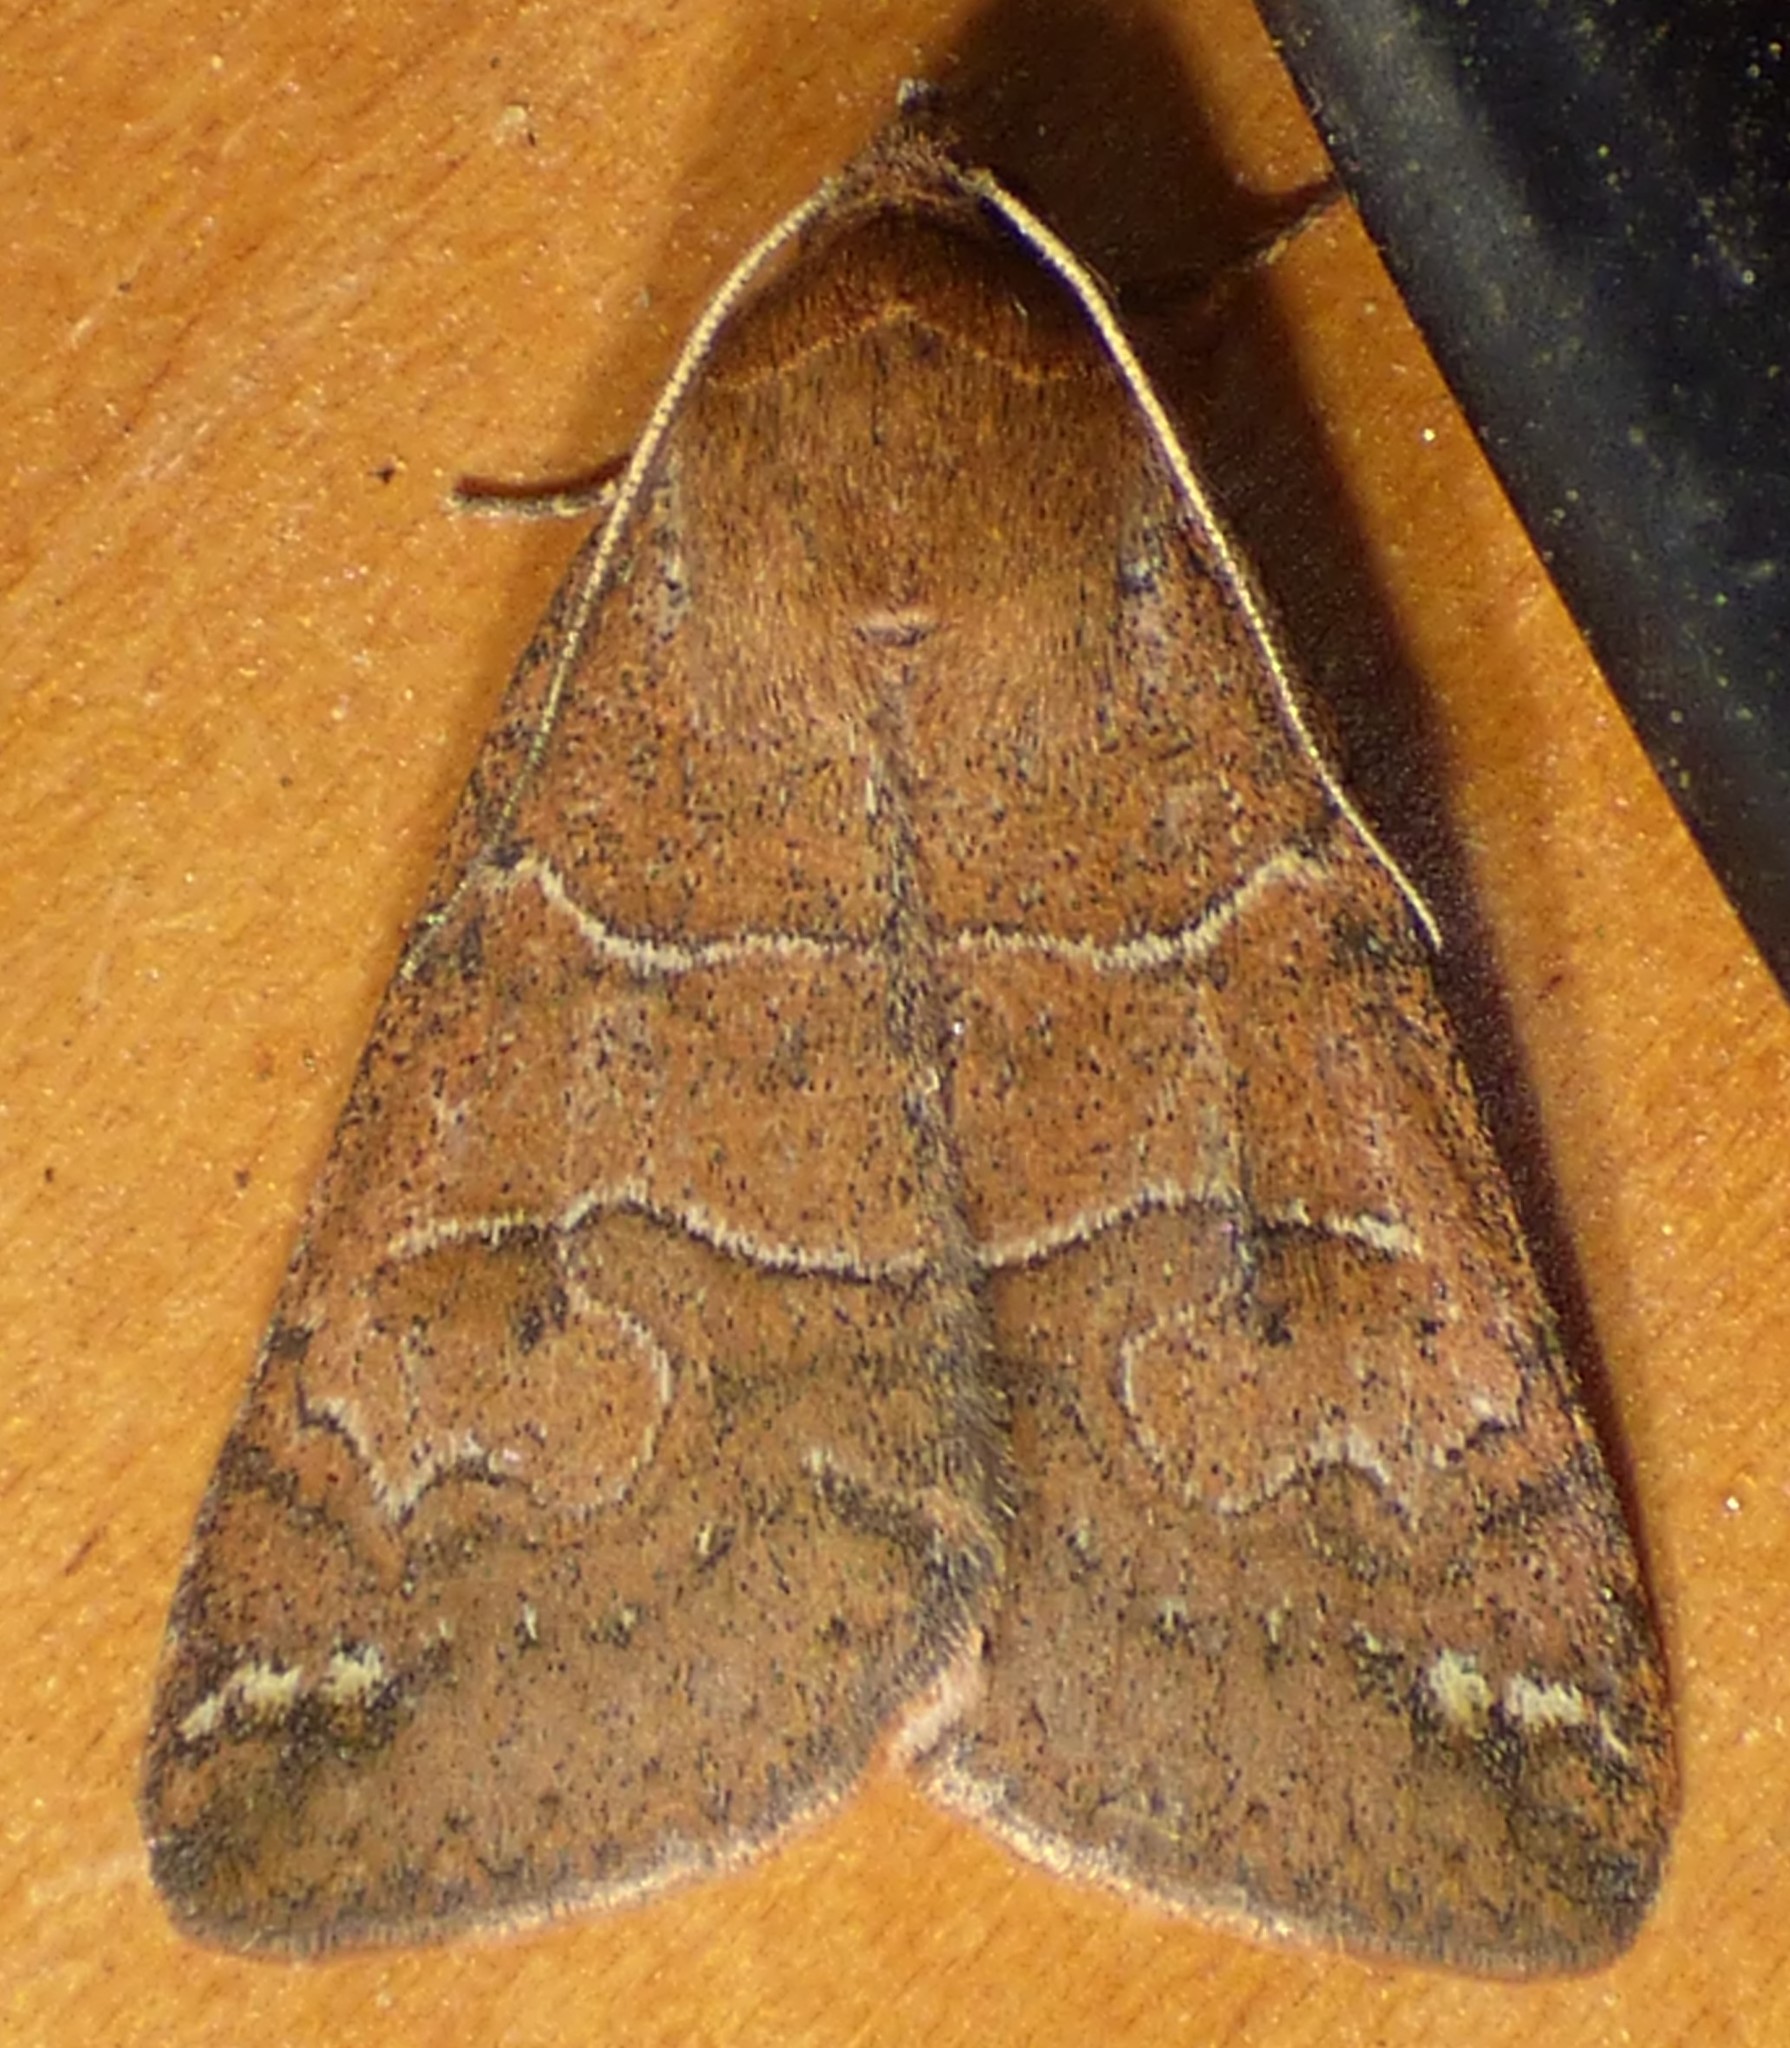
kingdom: Animalia
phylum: Arthropoda
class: Insecta
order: Lepidoptera
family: Erebidae
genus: Cissusa
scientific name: Cissusa spadix
